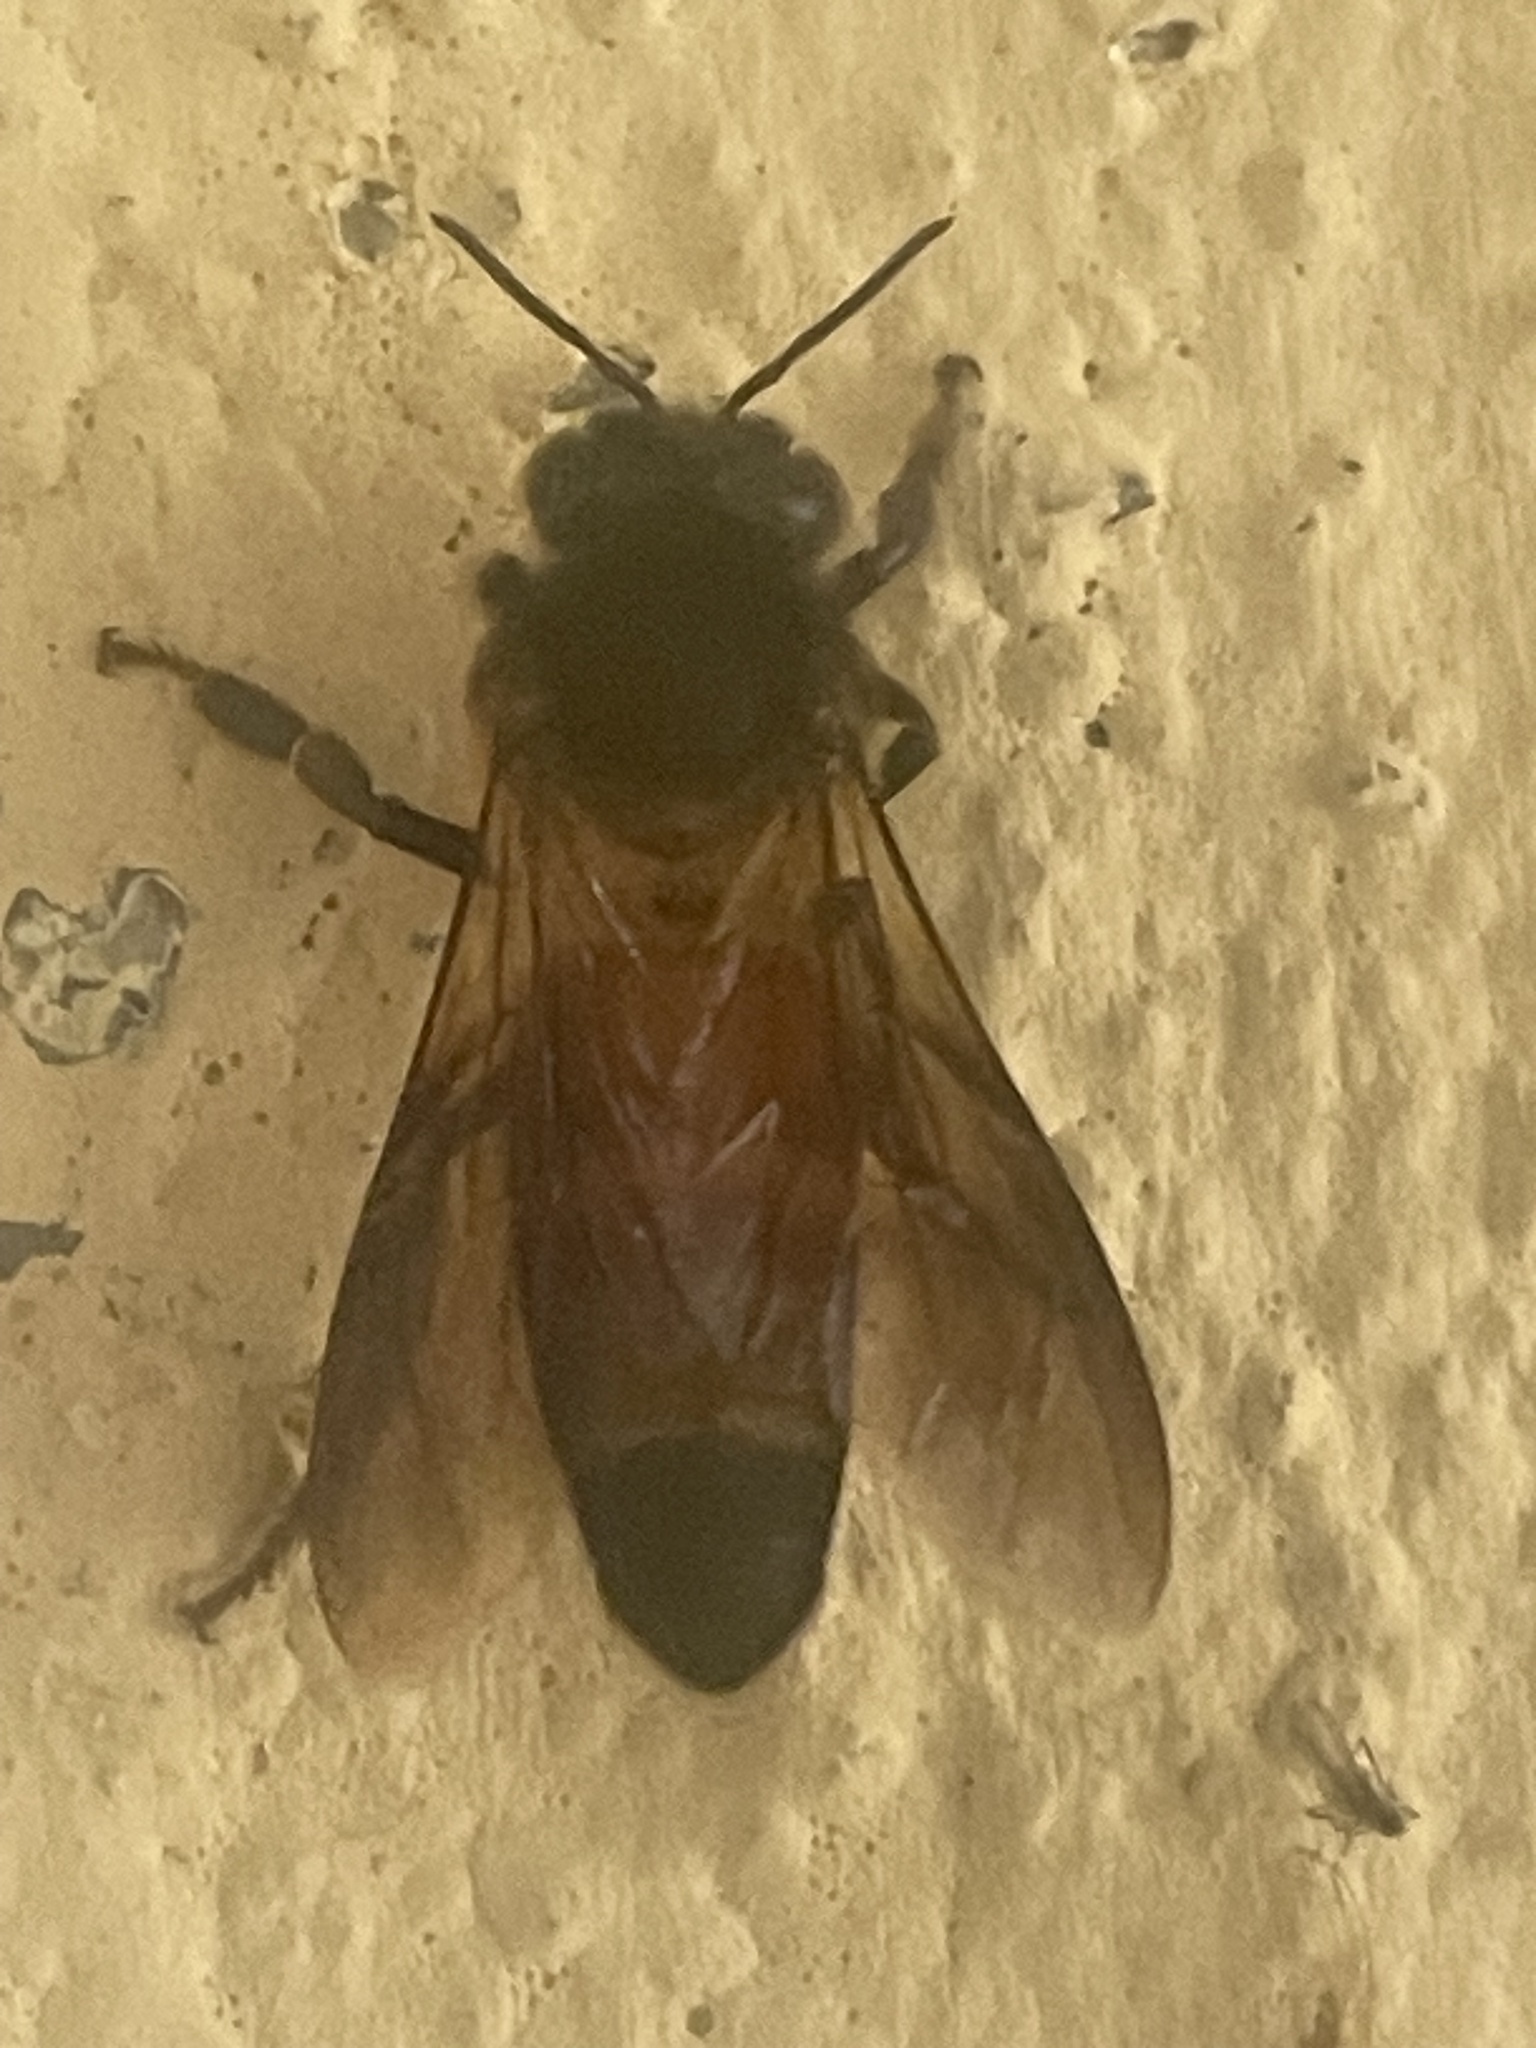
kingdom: Animalia
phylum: Arthropoda
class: Insecta
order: Hymenoptera
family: Apidae
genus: Apis
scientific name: Apis dorsata
